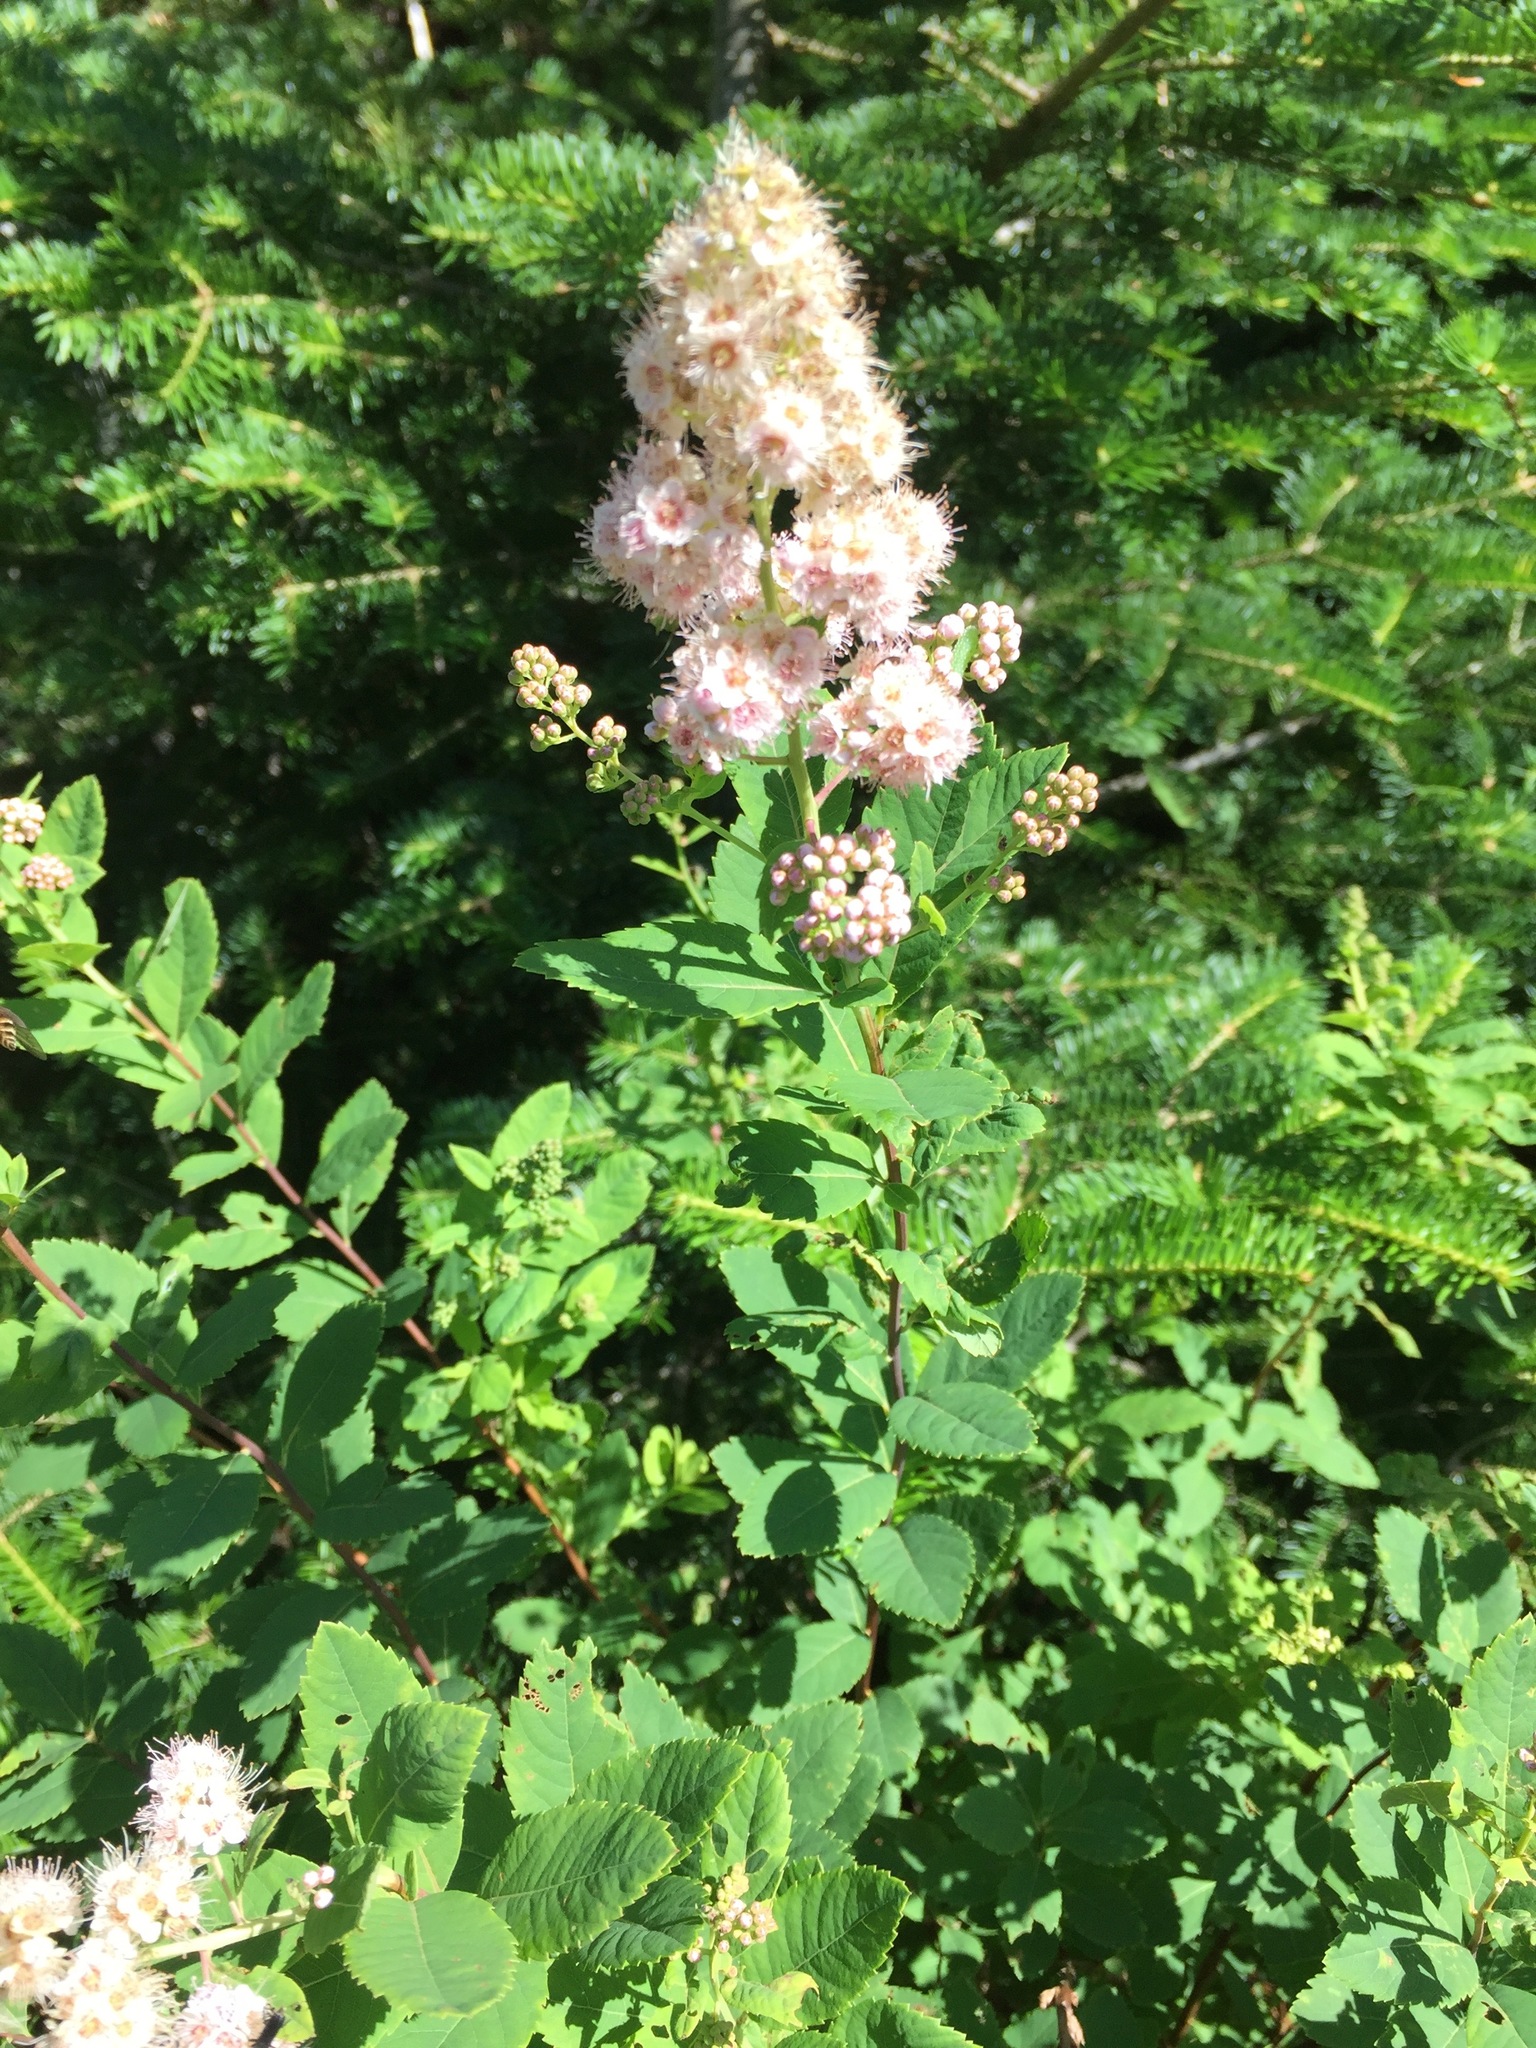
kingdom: Plantae
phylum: Tracheophyta
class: Magnoliopsida
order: Rosales
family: Rosaceae
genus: Spiraea
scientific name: Spiraea alba
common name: Pale bridewort
